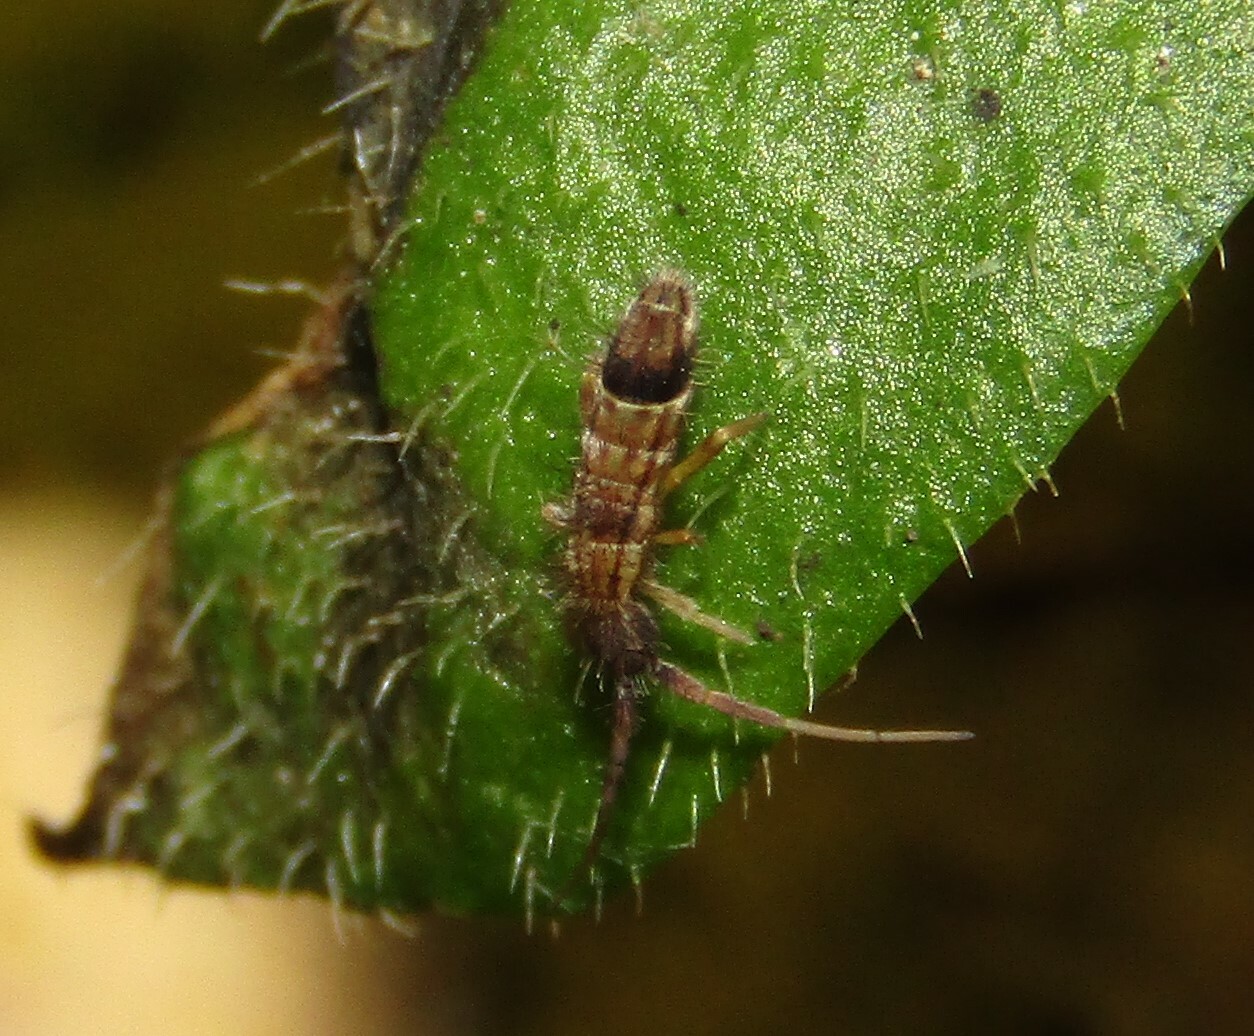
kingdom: Animalia
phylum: Arthropoda
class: Collembola
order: Entomobryomorpha
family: Entomobryidae
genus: Entomobrya
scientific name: Entomobrya nivalis
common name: Cosmopolitan springtail
